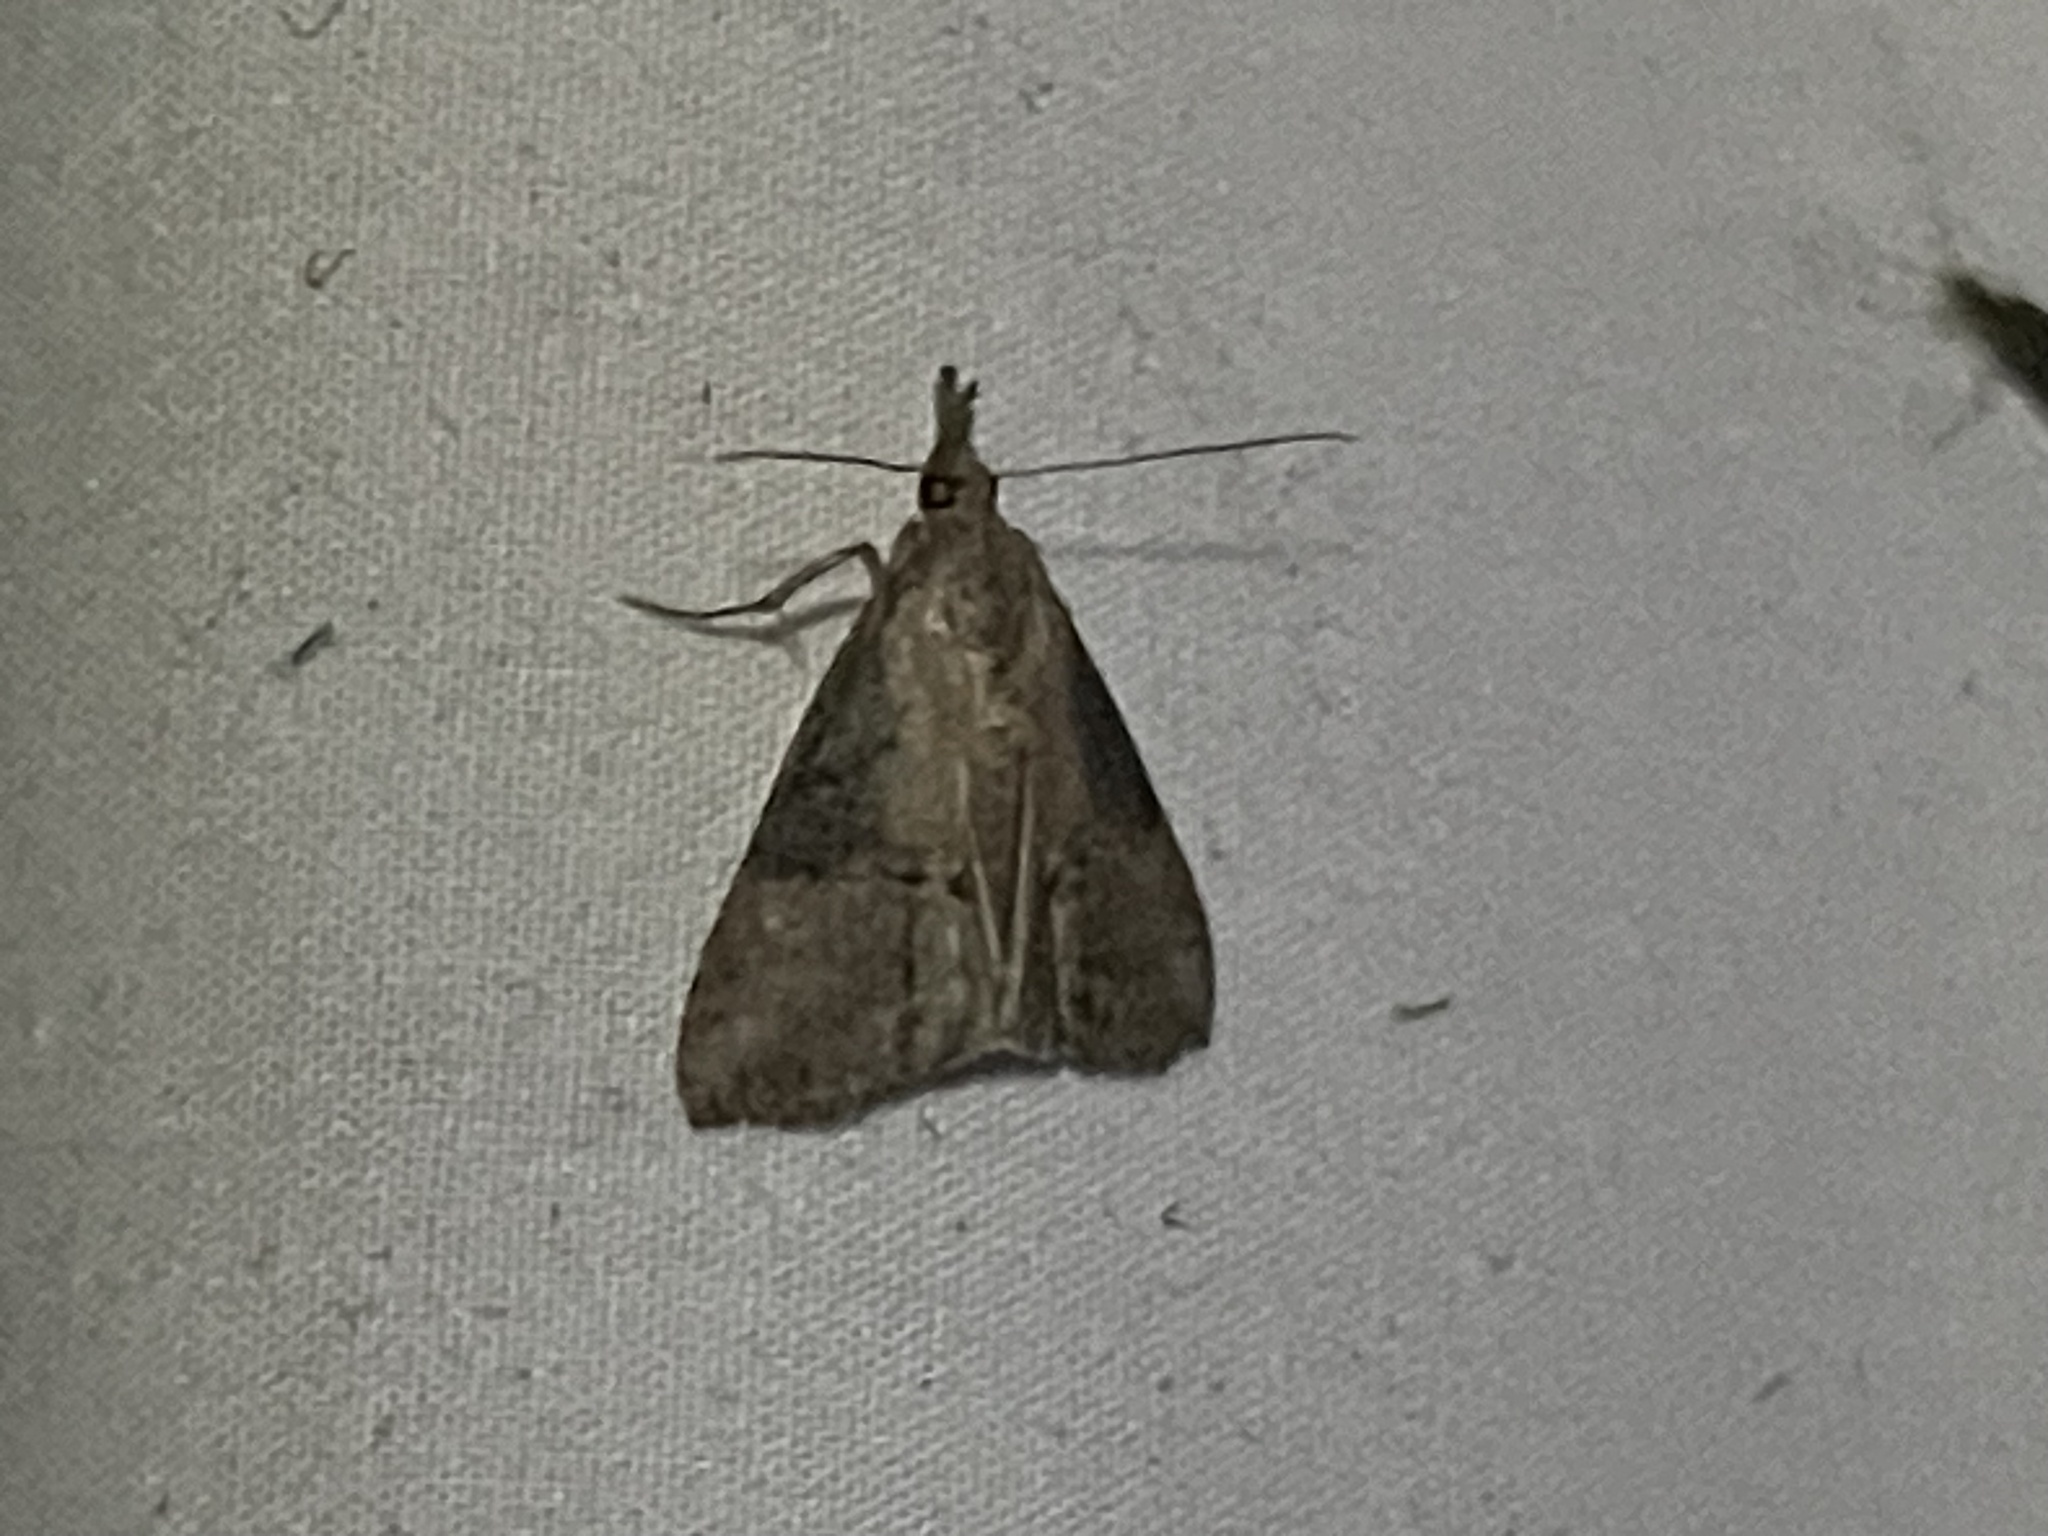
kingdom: Animalia
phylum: Arthropoda
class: Insecta
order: Lepidoptera
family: Erebidae
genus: Hypena
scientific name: Hypena scabra
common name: Green cloverworm
